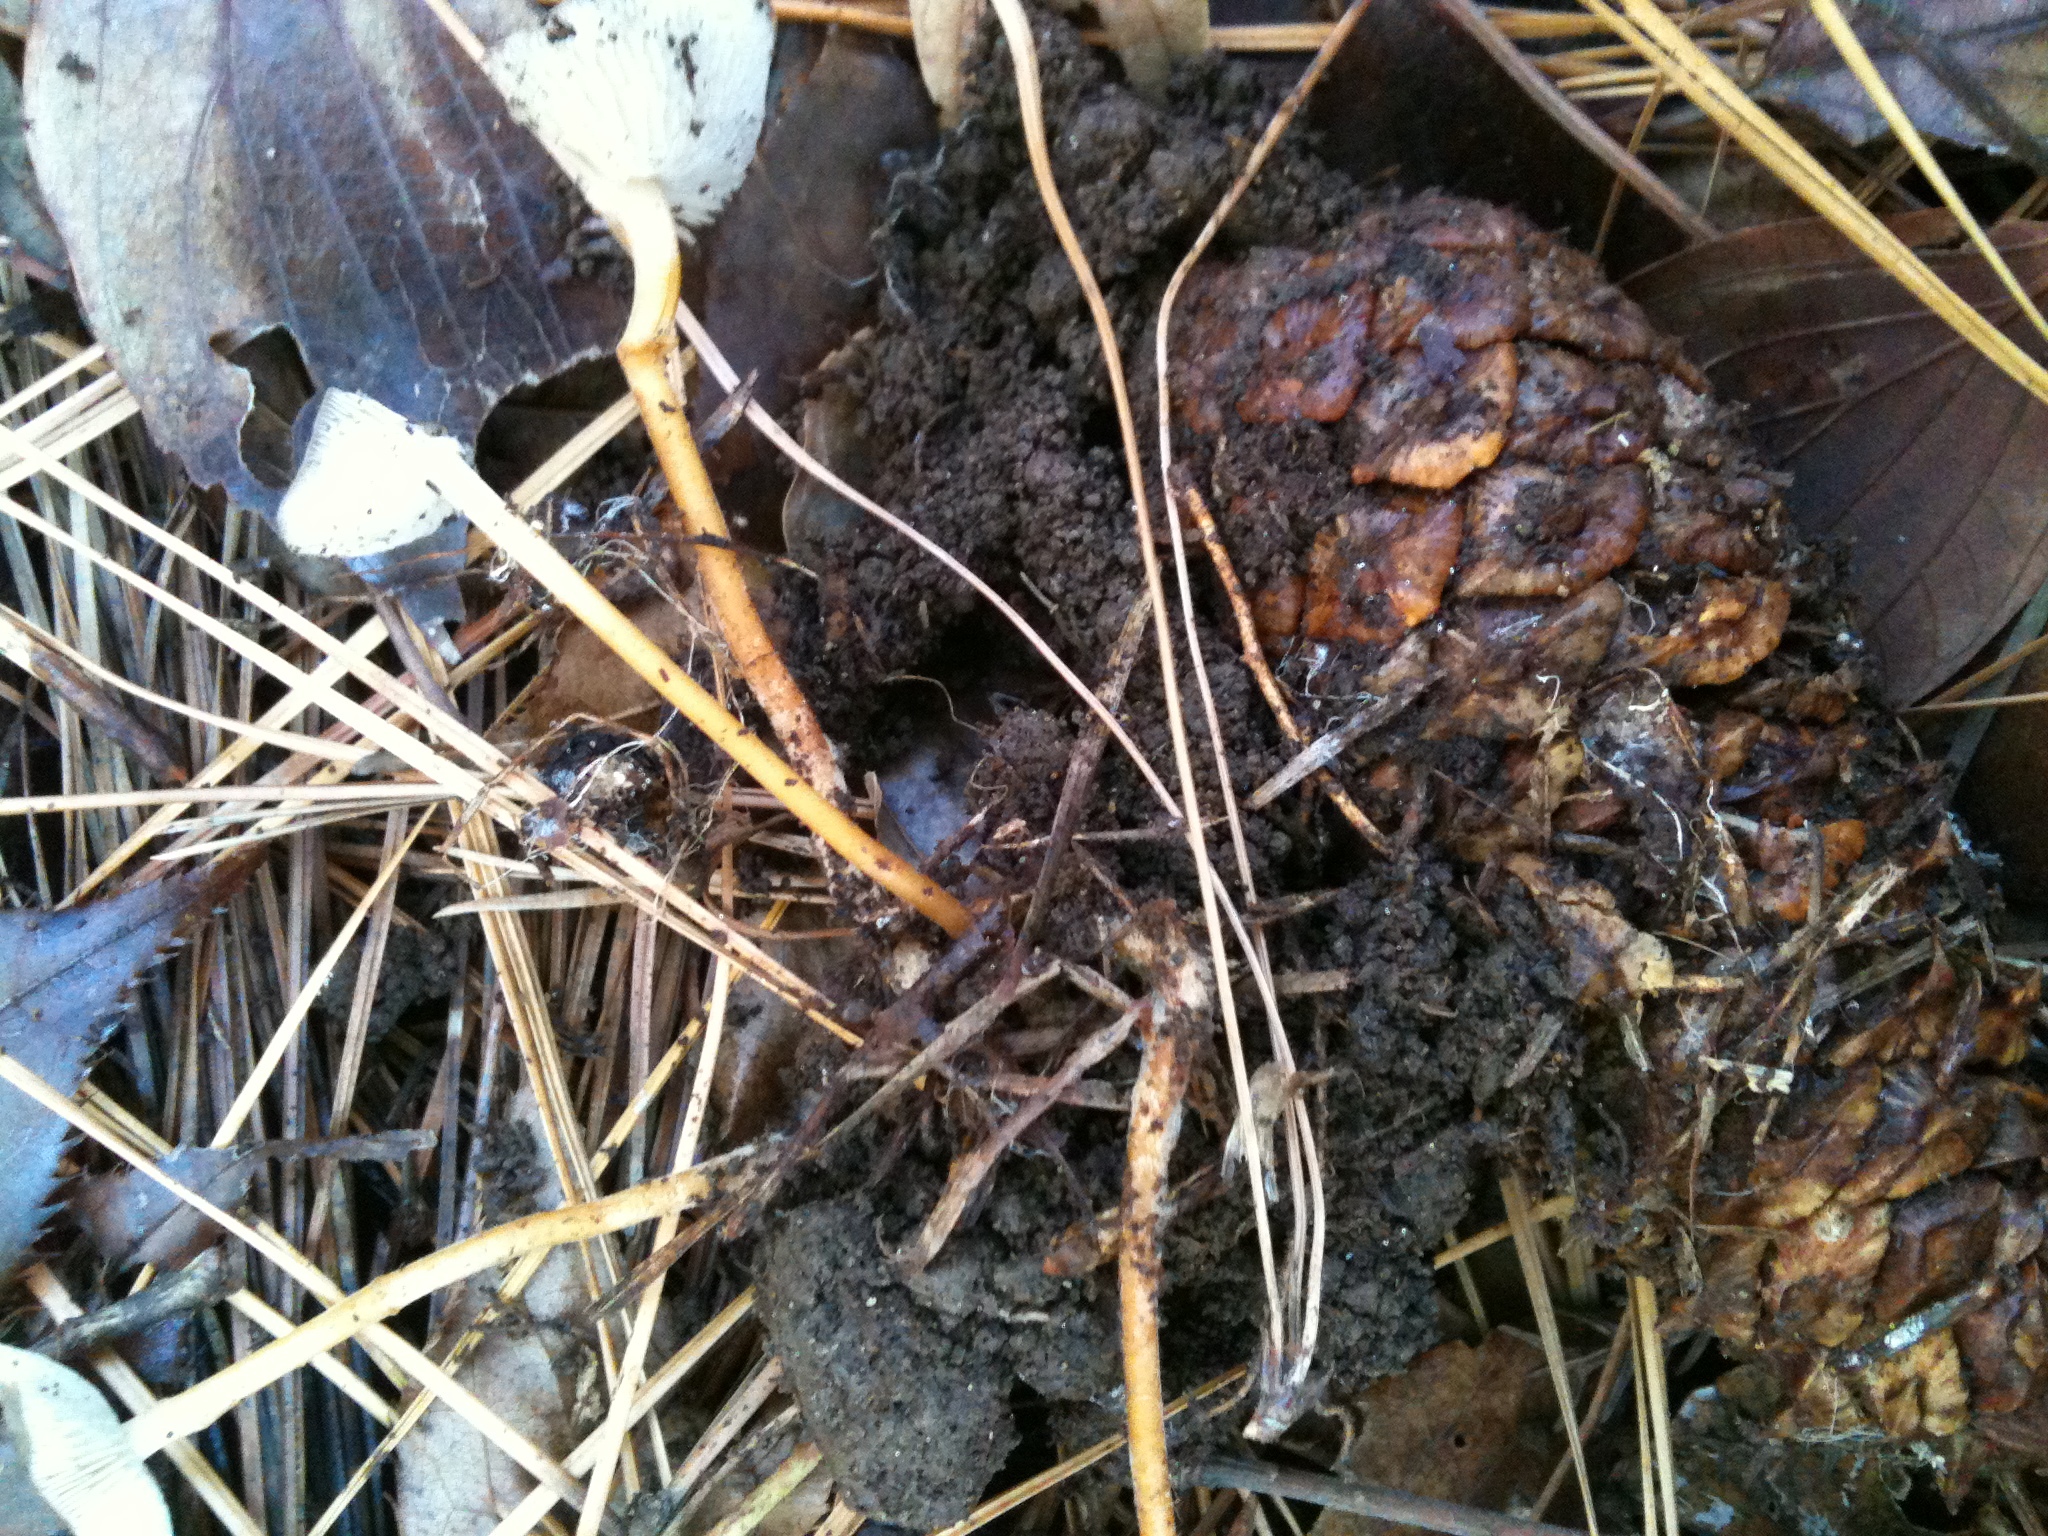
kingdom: Fungi
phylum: Basidiomycota
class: Agaricomycetes
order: Agaricales
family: Physalacriaceae
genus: Strobilurus
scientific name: Strobilurus stephanocystis
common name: Russian conecap
